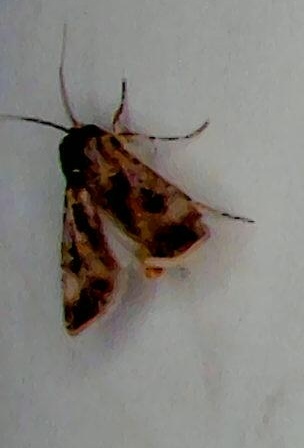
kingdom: Animalia
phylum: Arthropoda
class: Insecta
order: Lepidoptera
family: Noctuidae
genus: Agrotis
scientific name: Agrotis munda
